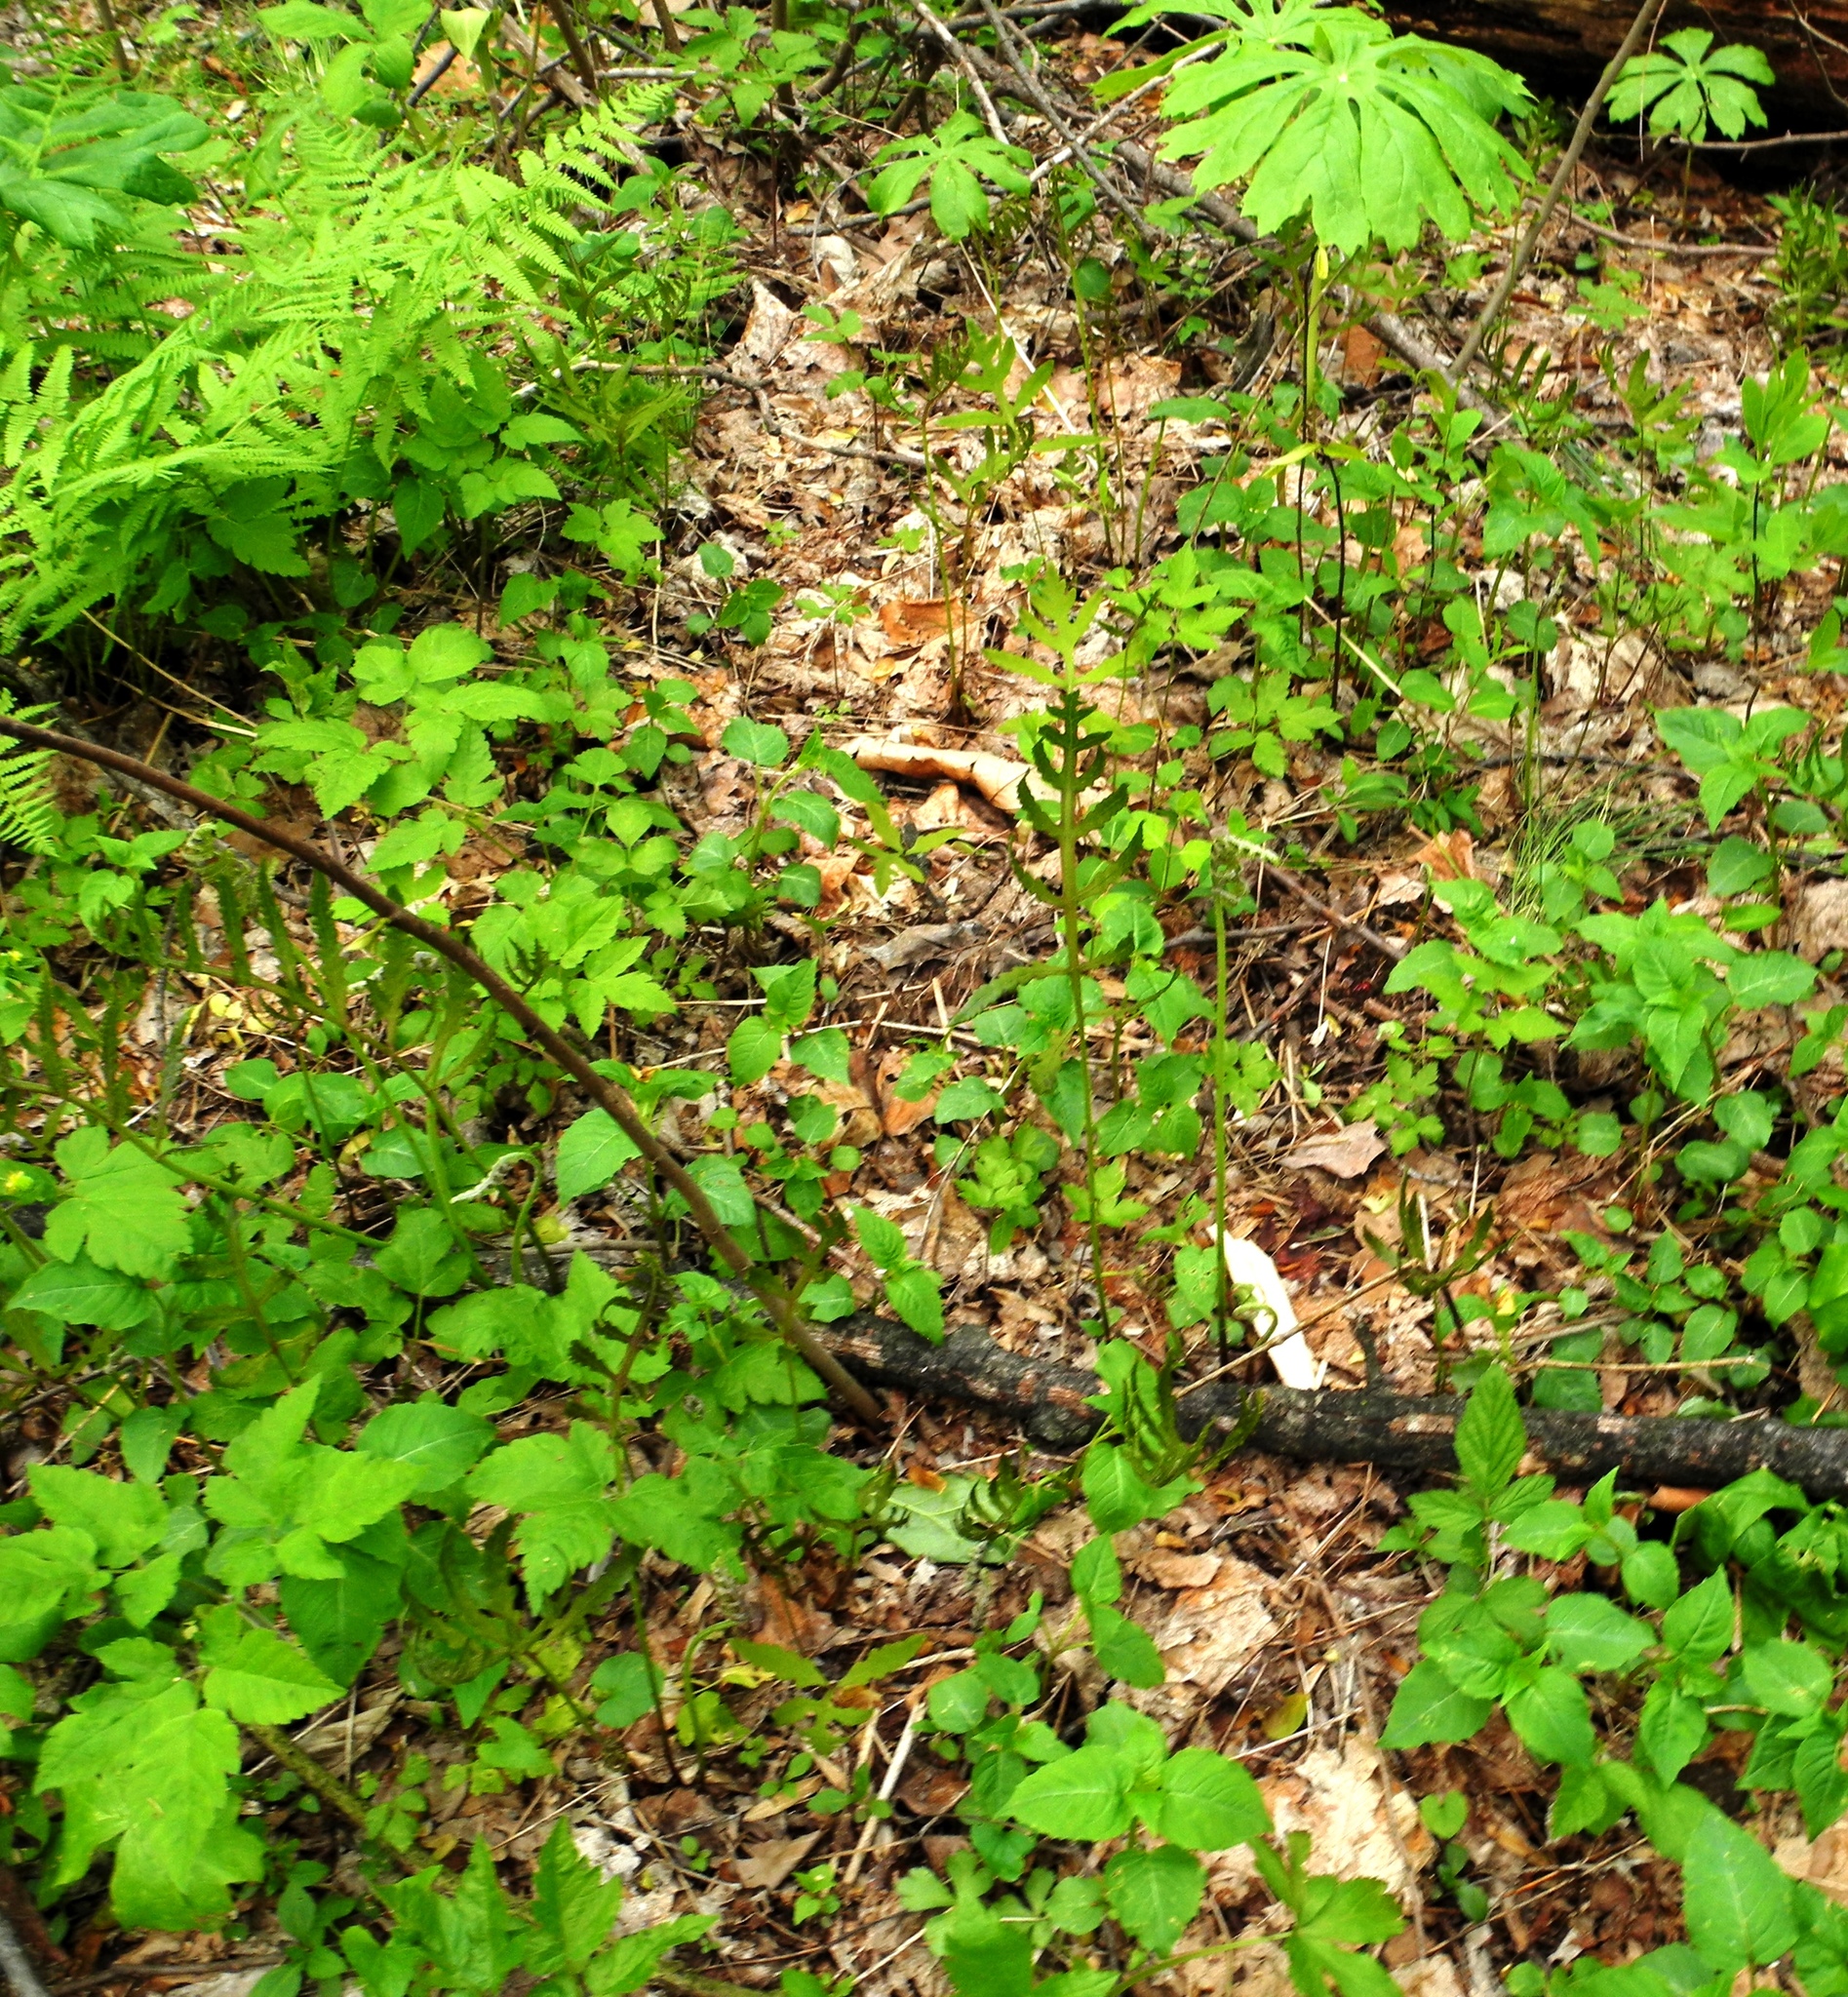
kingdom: Plantae
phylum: Tracheophyta
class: Polypodiopsida
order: Polypodiales
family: Onocleaceae
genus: Onoclea
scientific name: Onoclea sensibilis
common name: Sensitive fern
